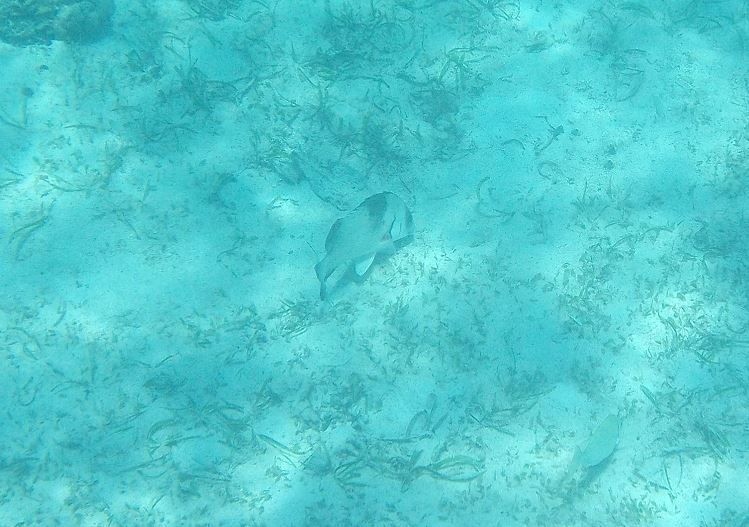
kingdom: Animalia
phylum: Chordata
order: Perciformes
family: Haemulidae
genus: Plectorhinchus
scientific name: Plectorhinchus gibbosus
